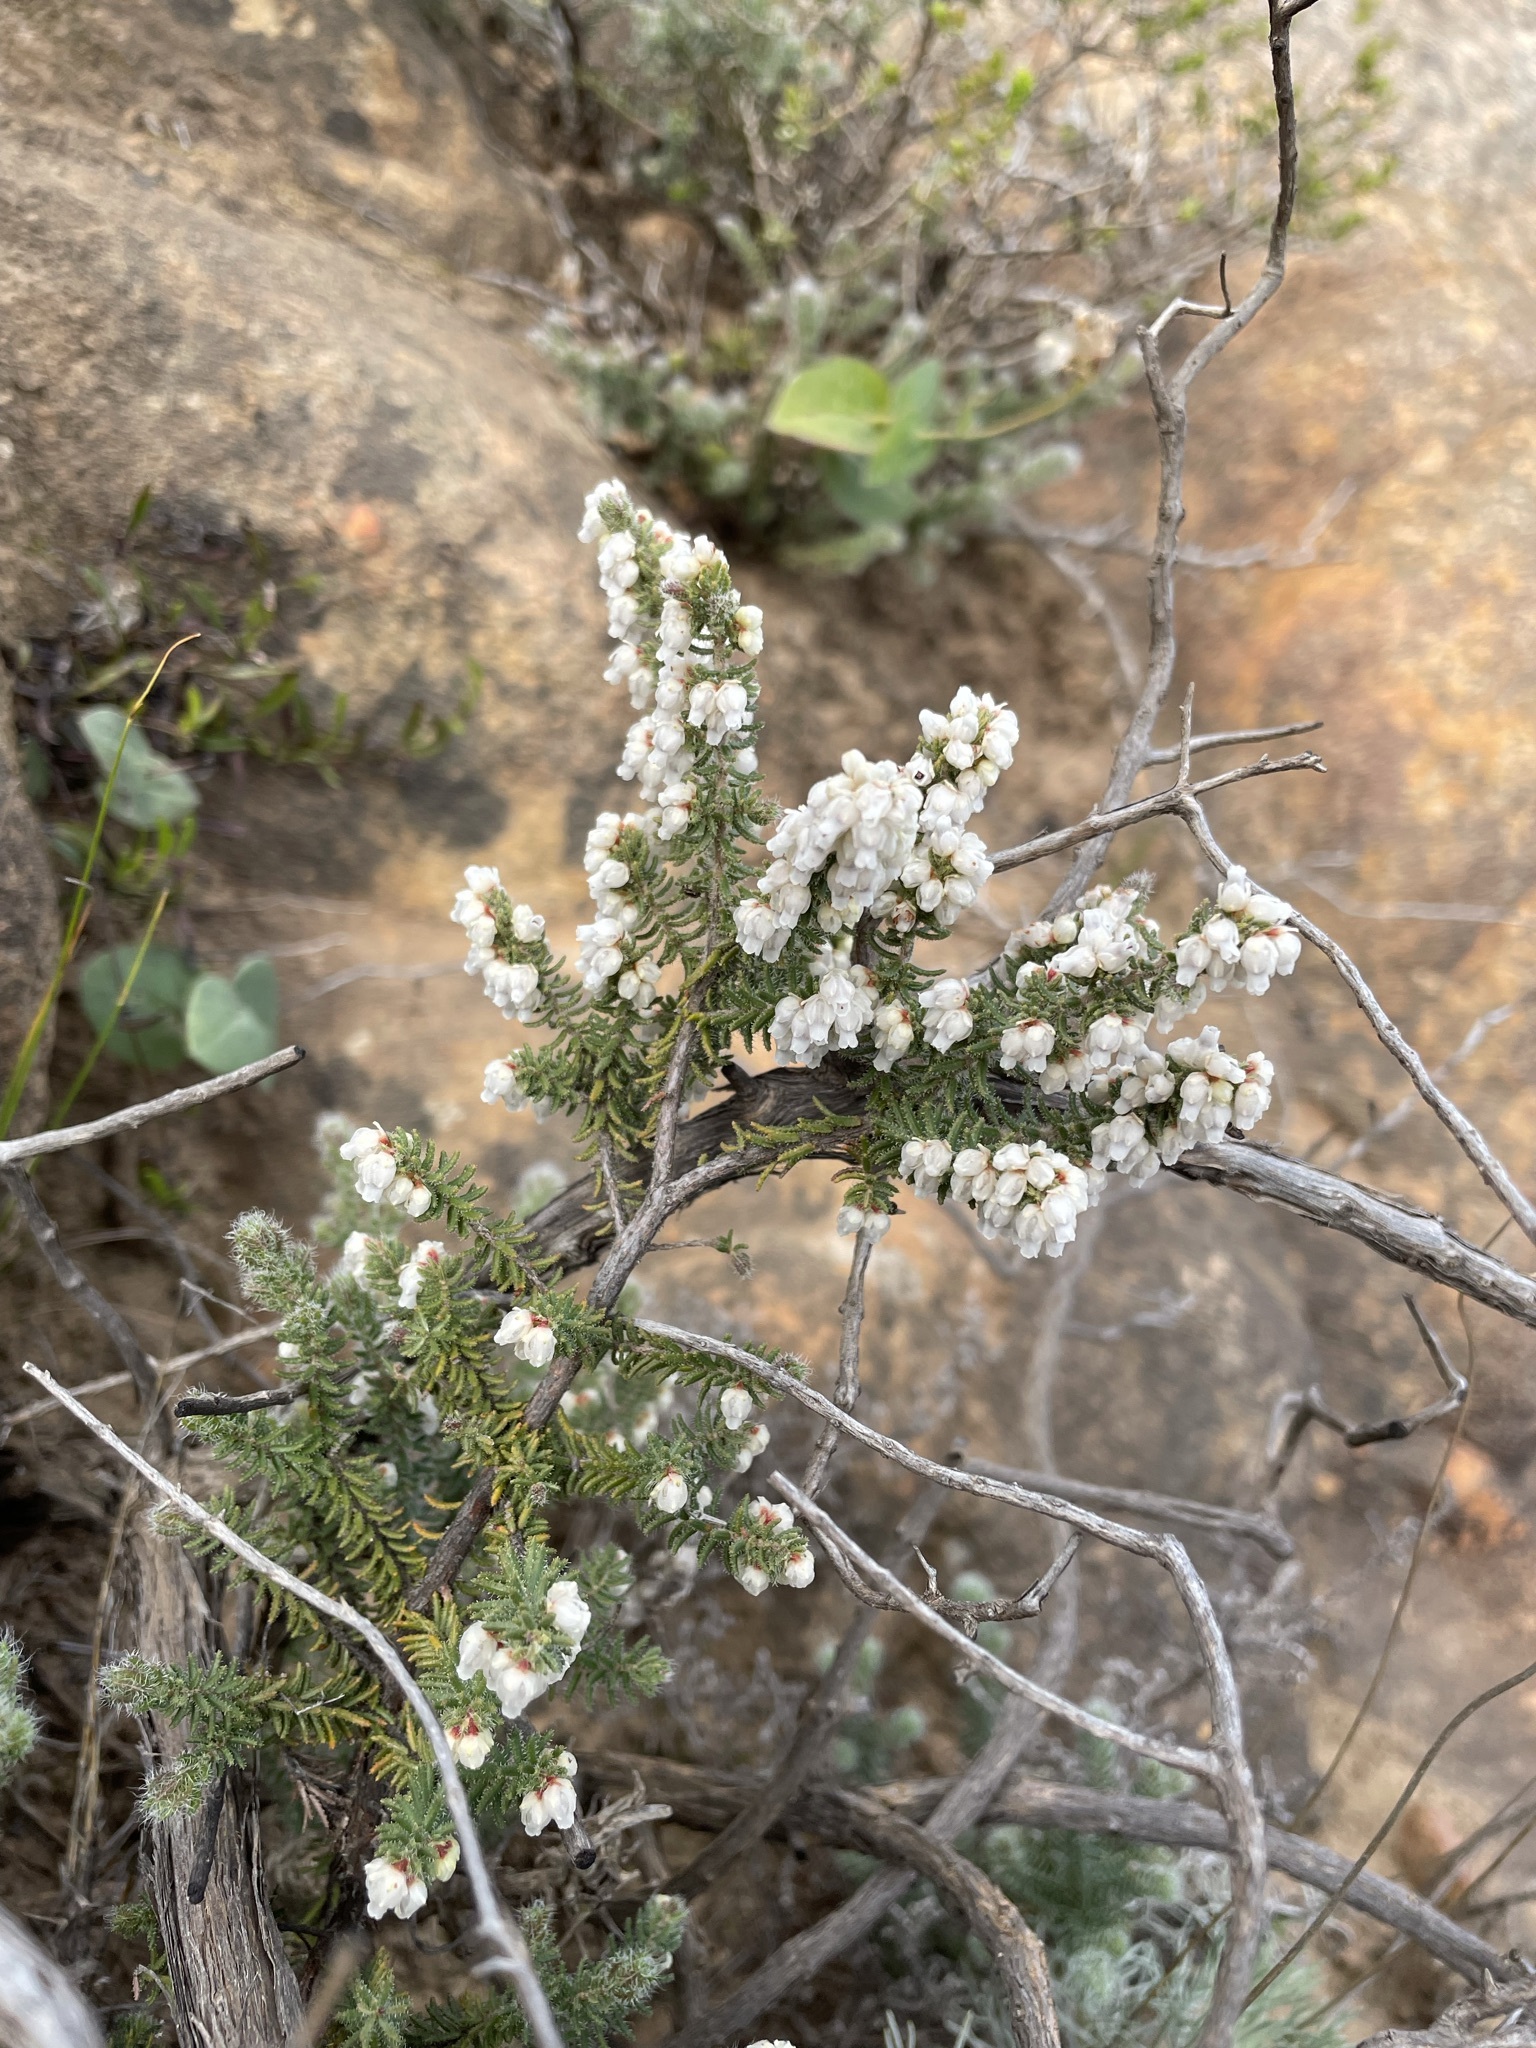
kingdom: Plantae
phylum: Tracheophyta
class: Magnoliopsida
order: Ericales
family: Ericaceae
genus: Erica
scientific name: Erica totta
